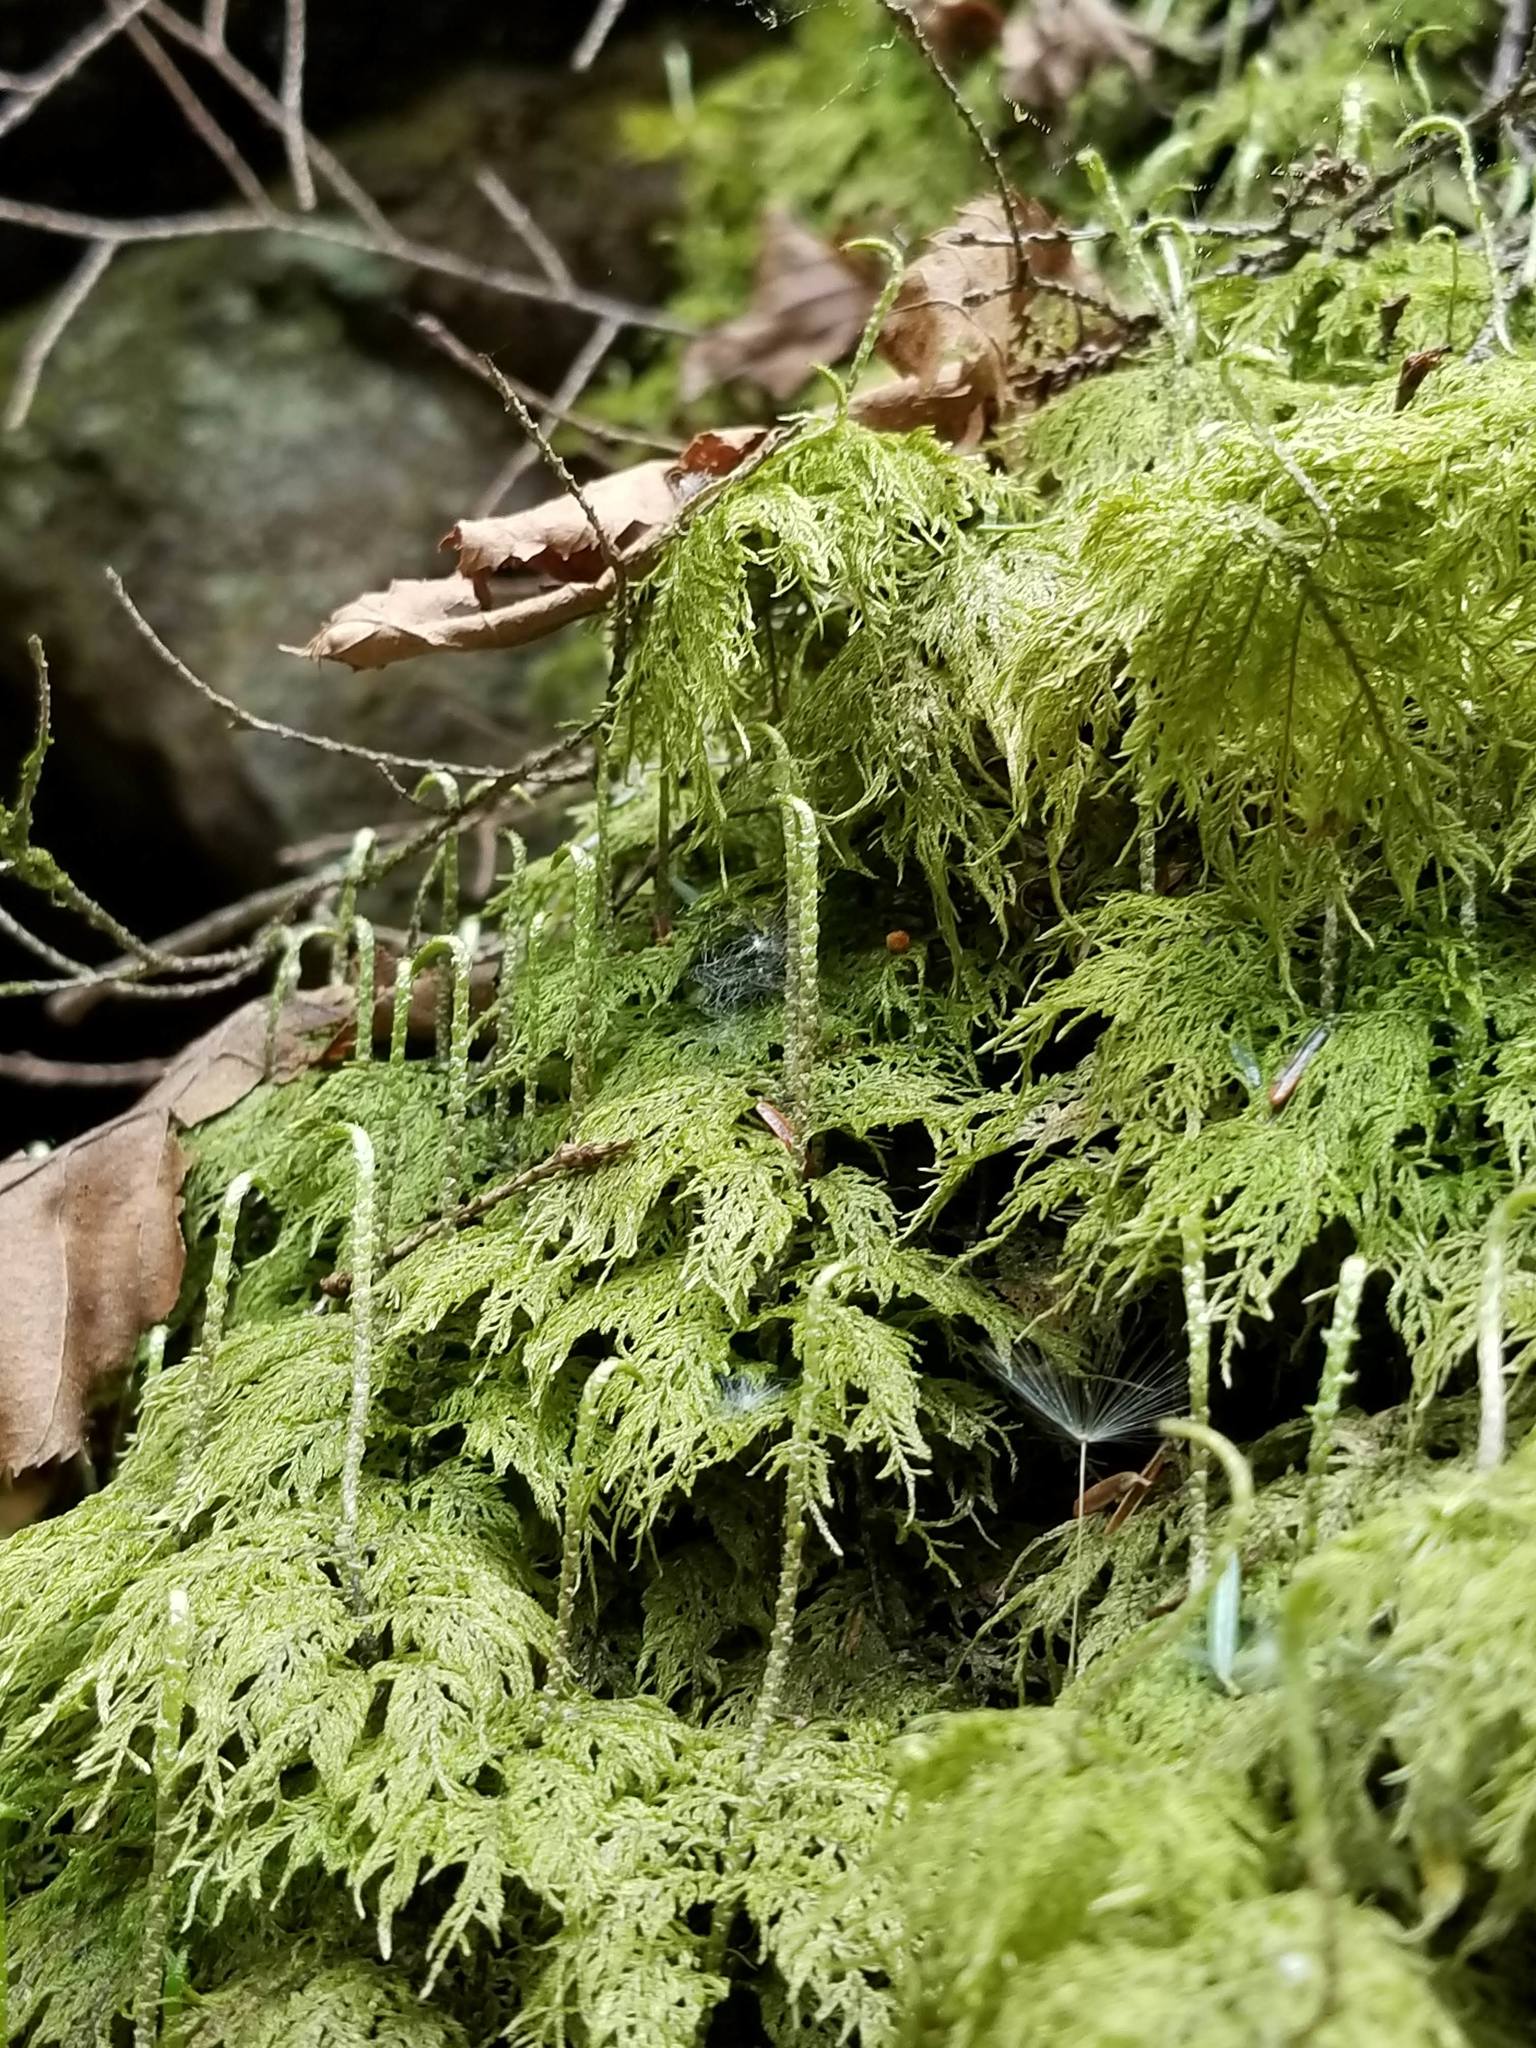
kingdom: Plantae
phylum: Bryophyta
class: Bryopsida
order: Hypnales
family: Hylocomiaceae
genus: Hylocomium
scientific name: Hylocomium splendens
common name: Stairstep moss
